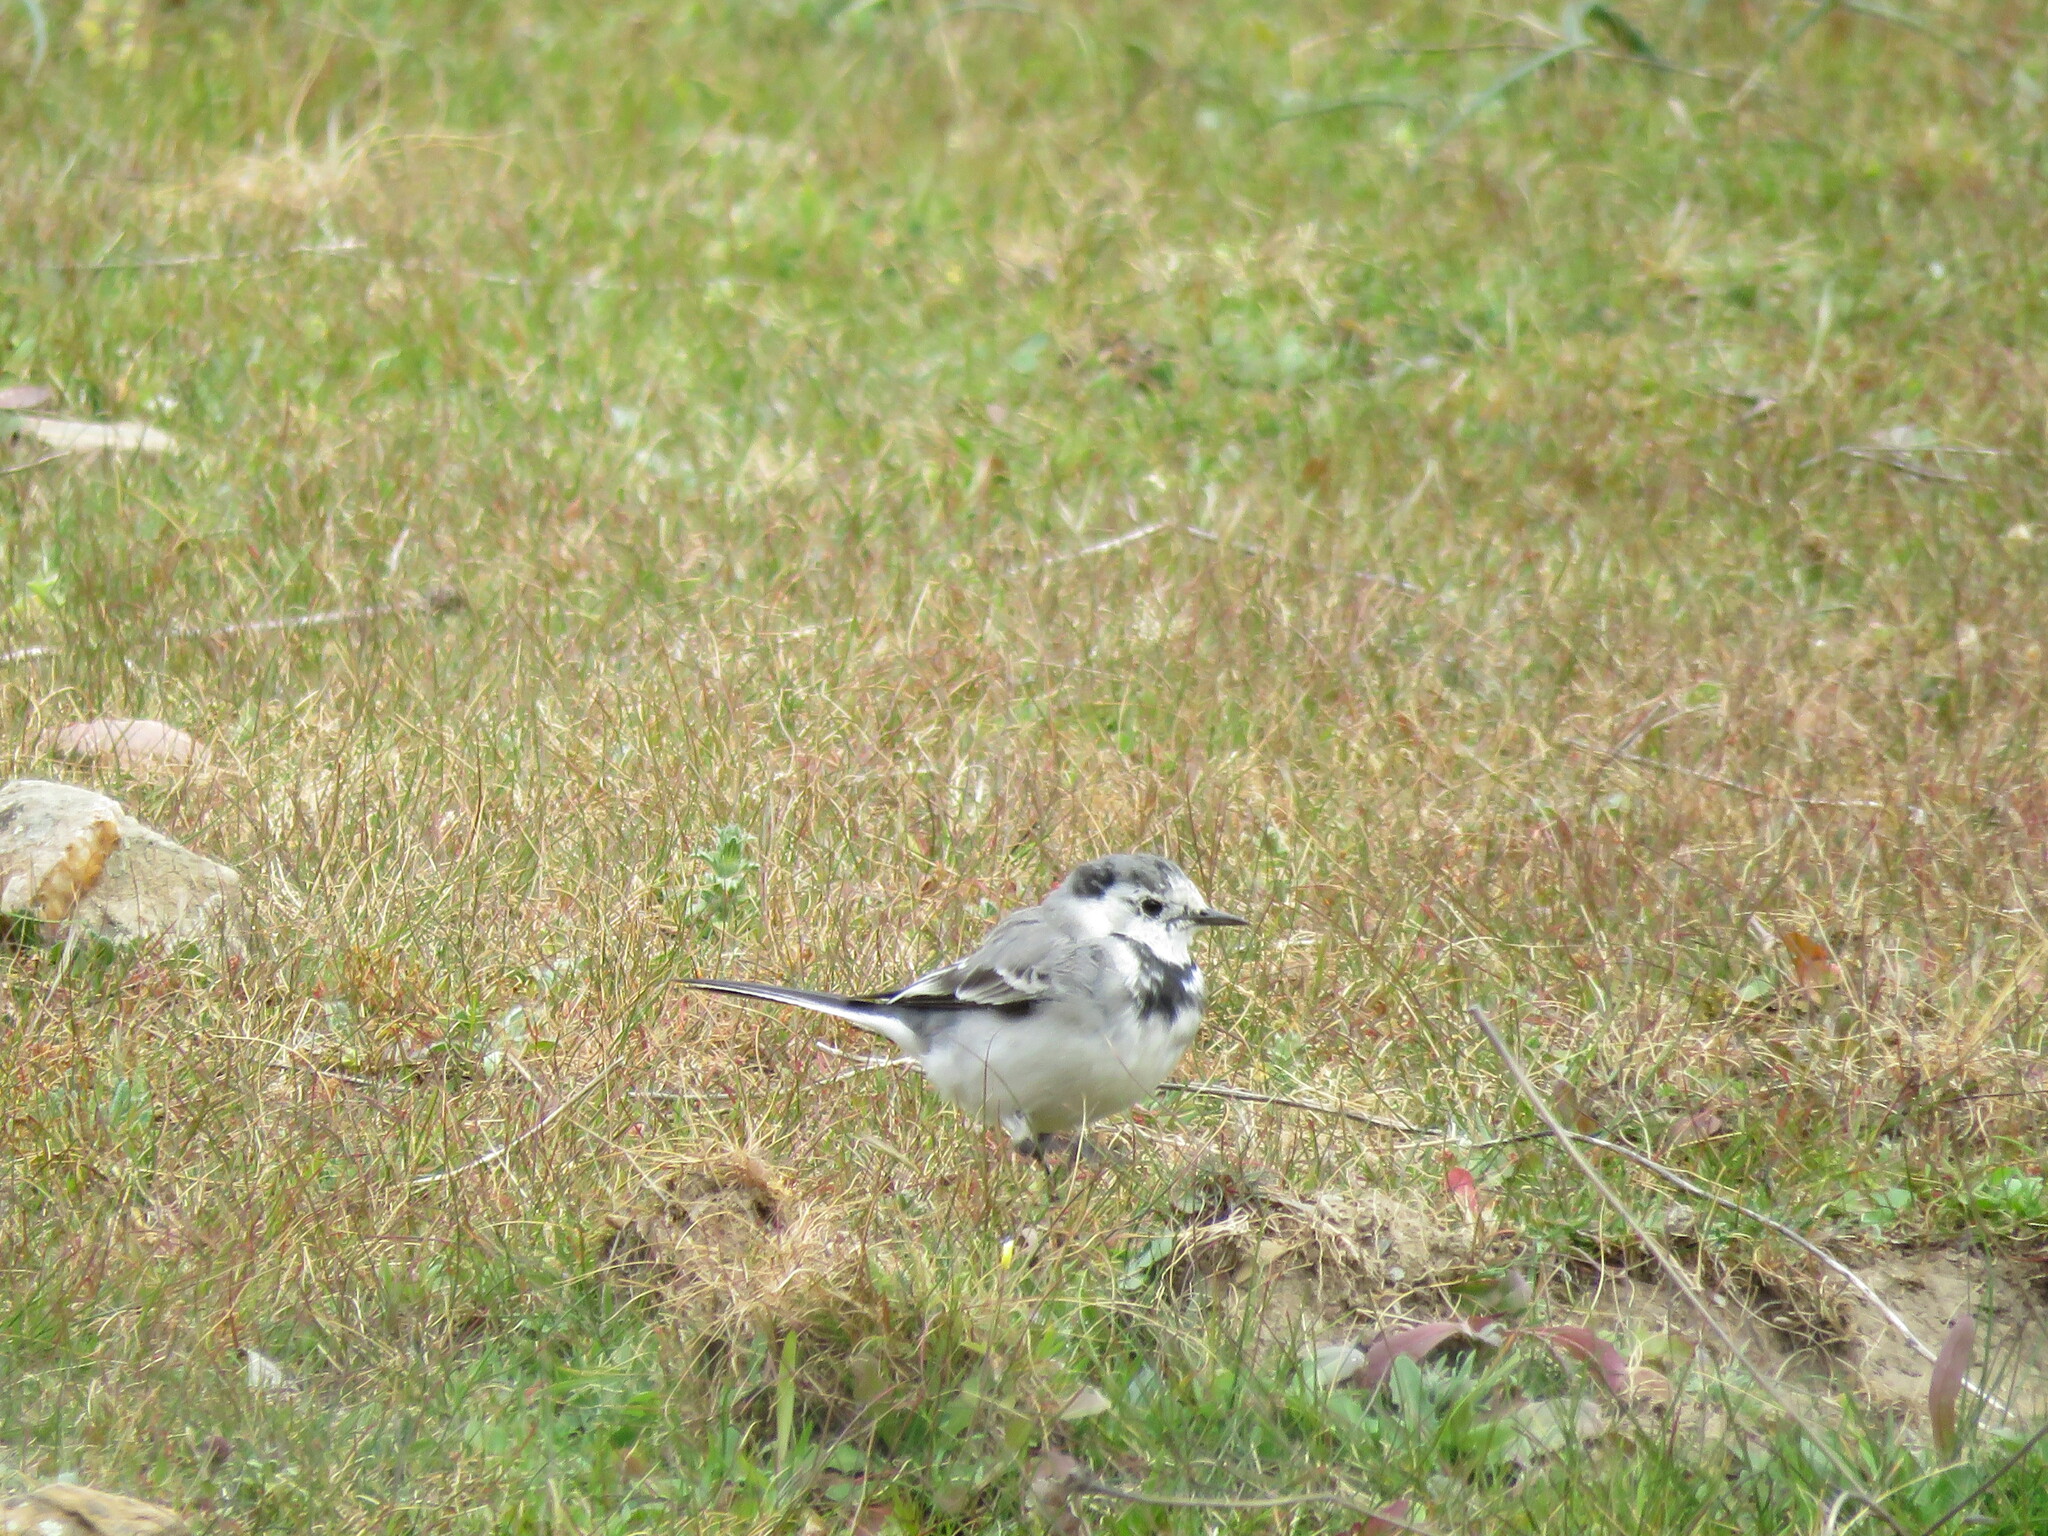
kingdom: Animalia
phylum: Chordata
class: Aves
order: Passeriformes
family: Motacillidae
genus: Motacilla
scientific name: Motacilla alba
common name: White wagtail
